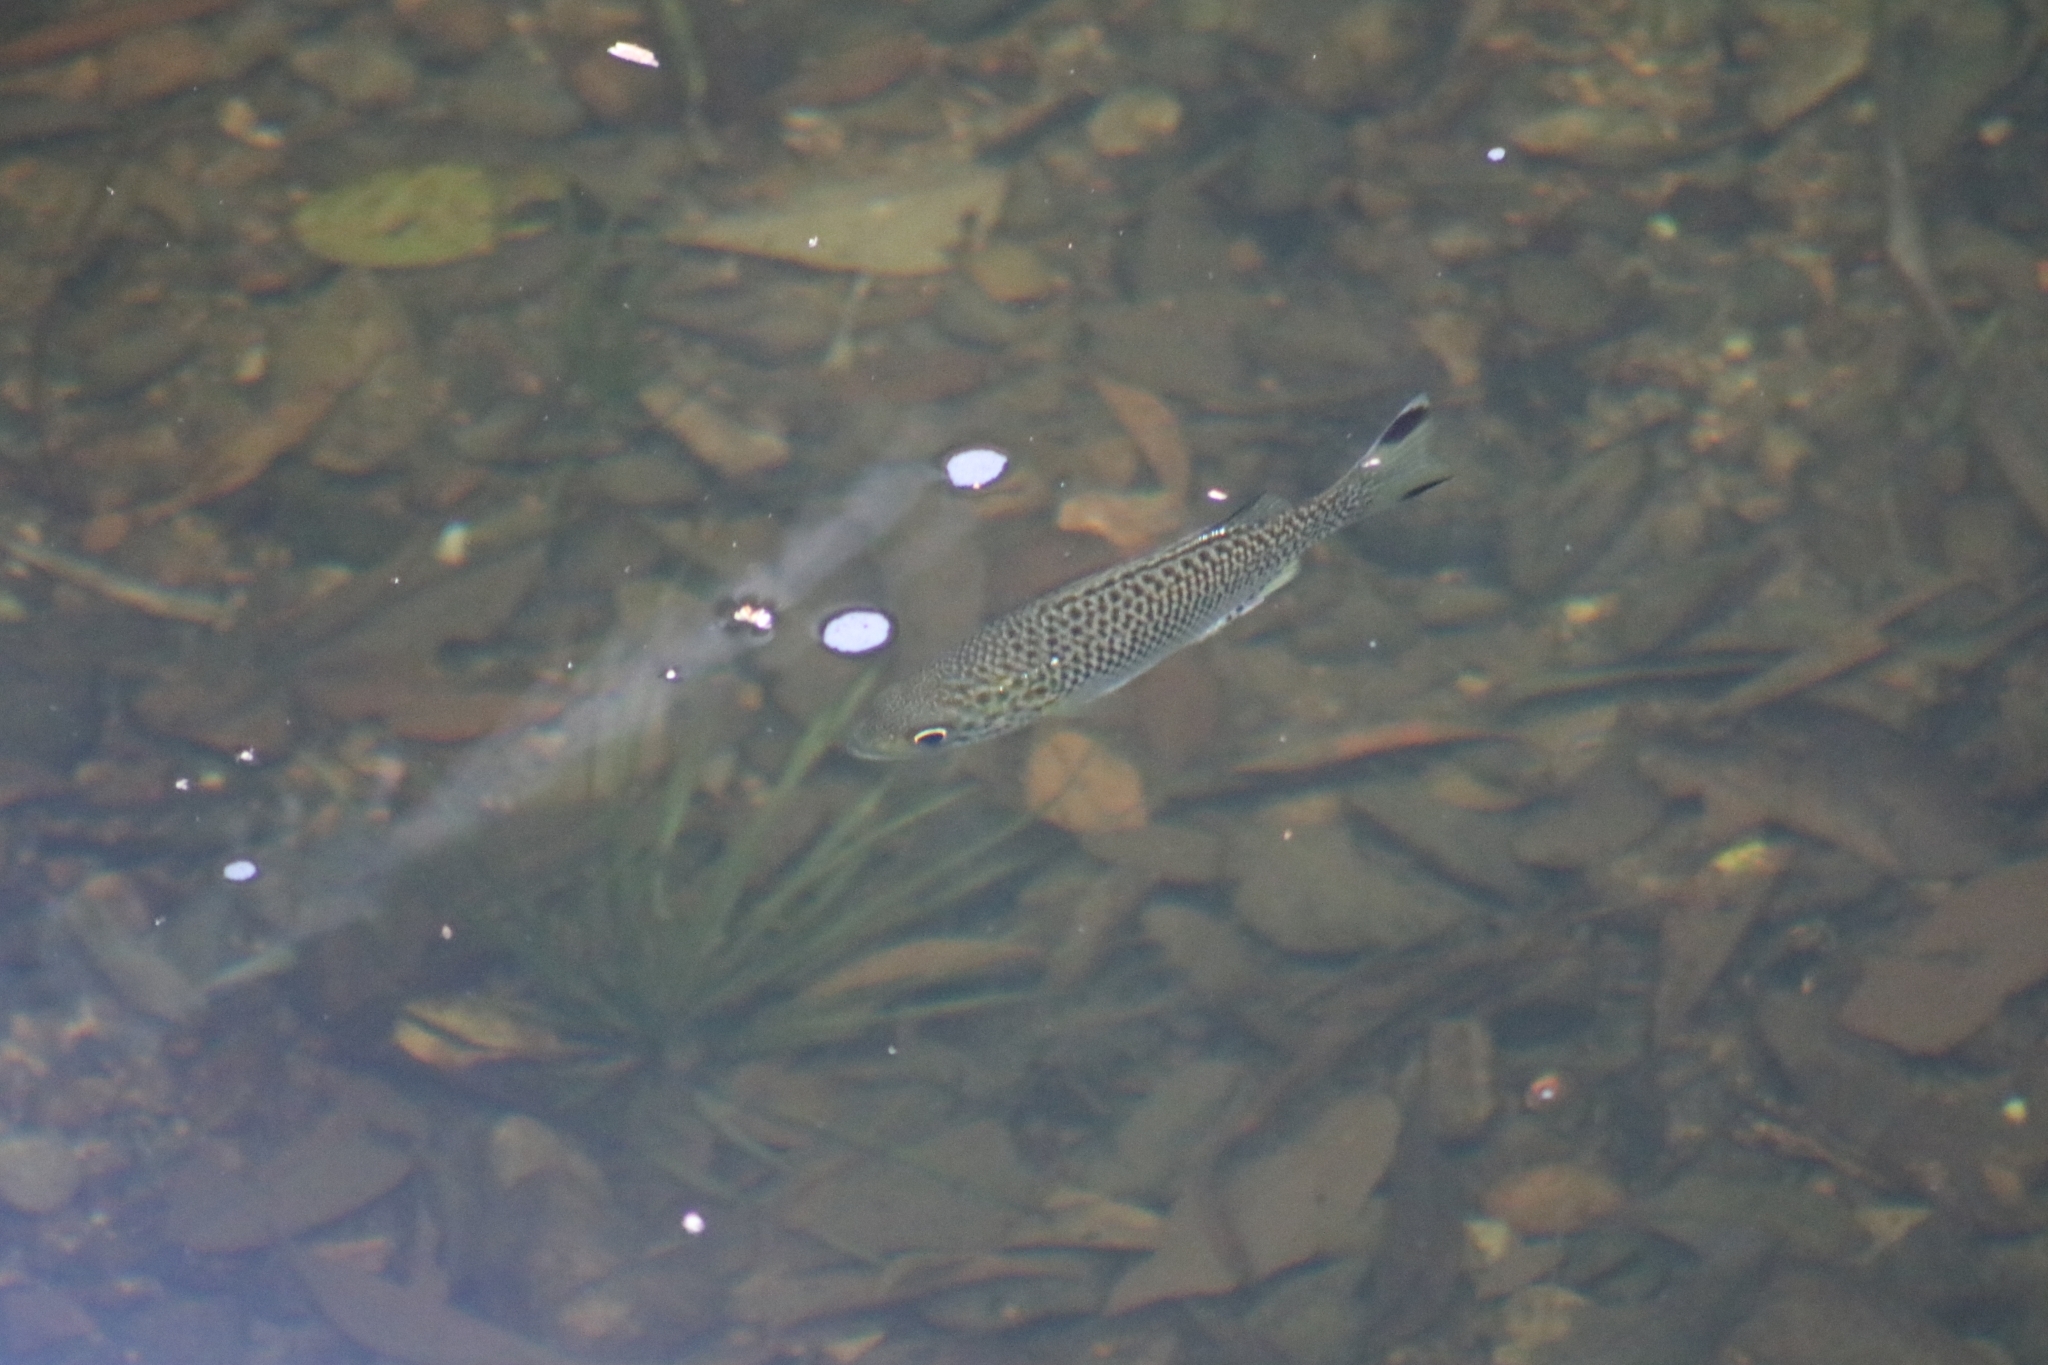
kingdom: Animalia
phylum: Chordata
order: Perciformes
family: Kuhliidae
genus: Kuhlia
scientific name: Kuhlia rupestris
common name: Rock flagtail
